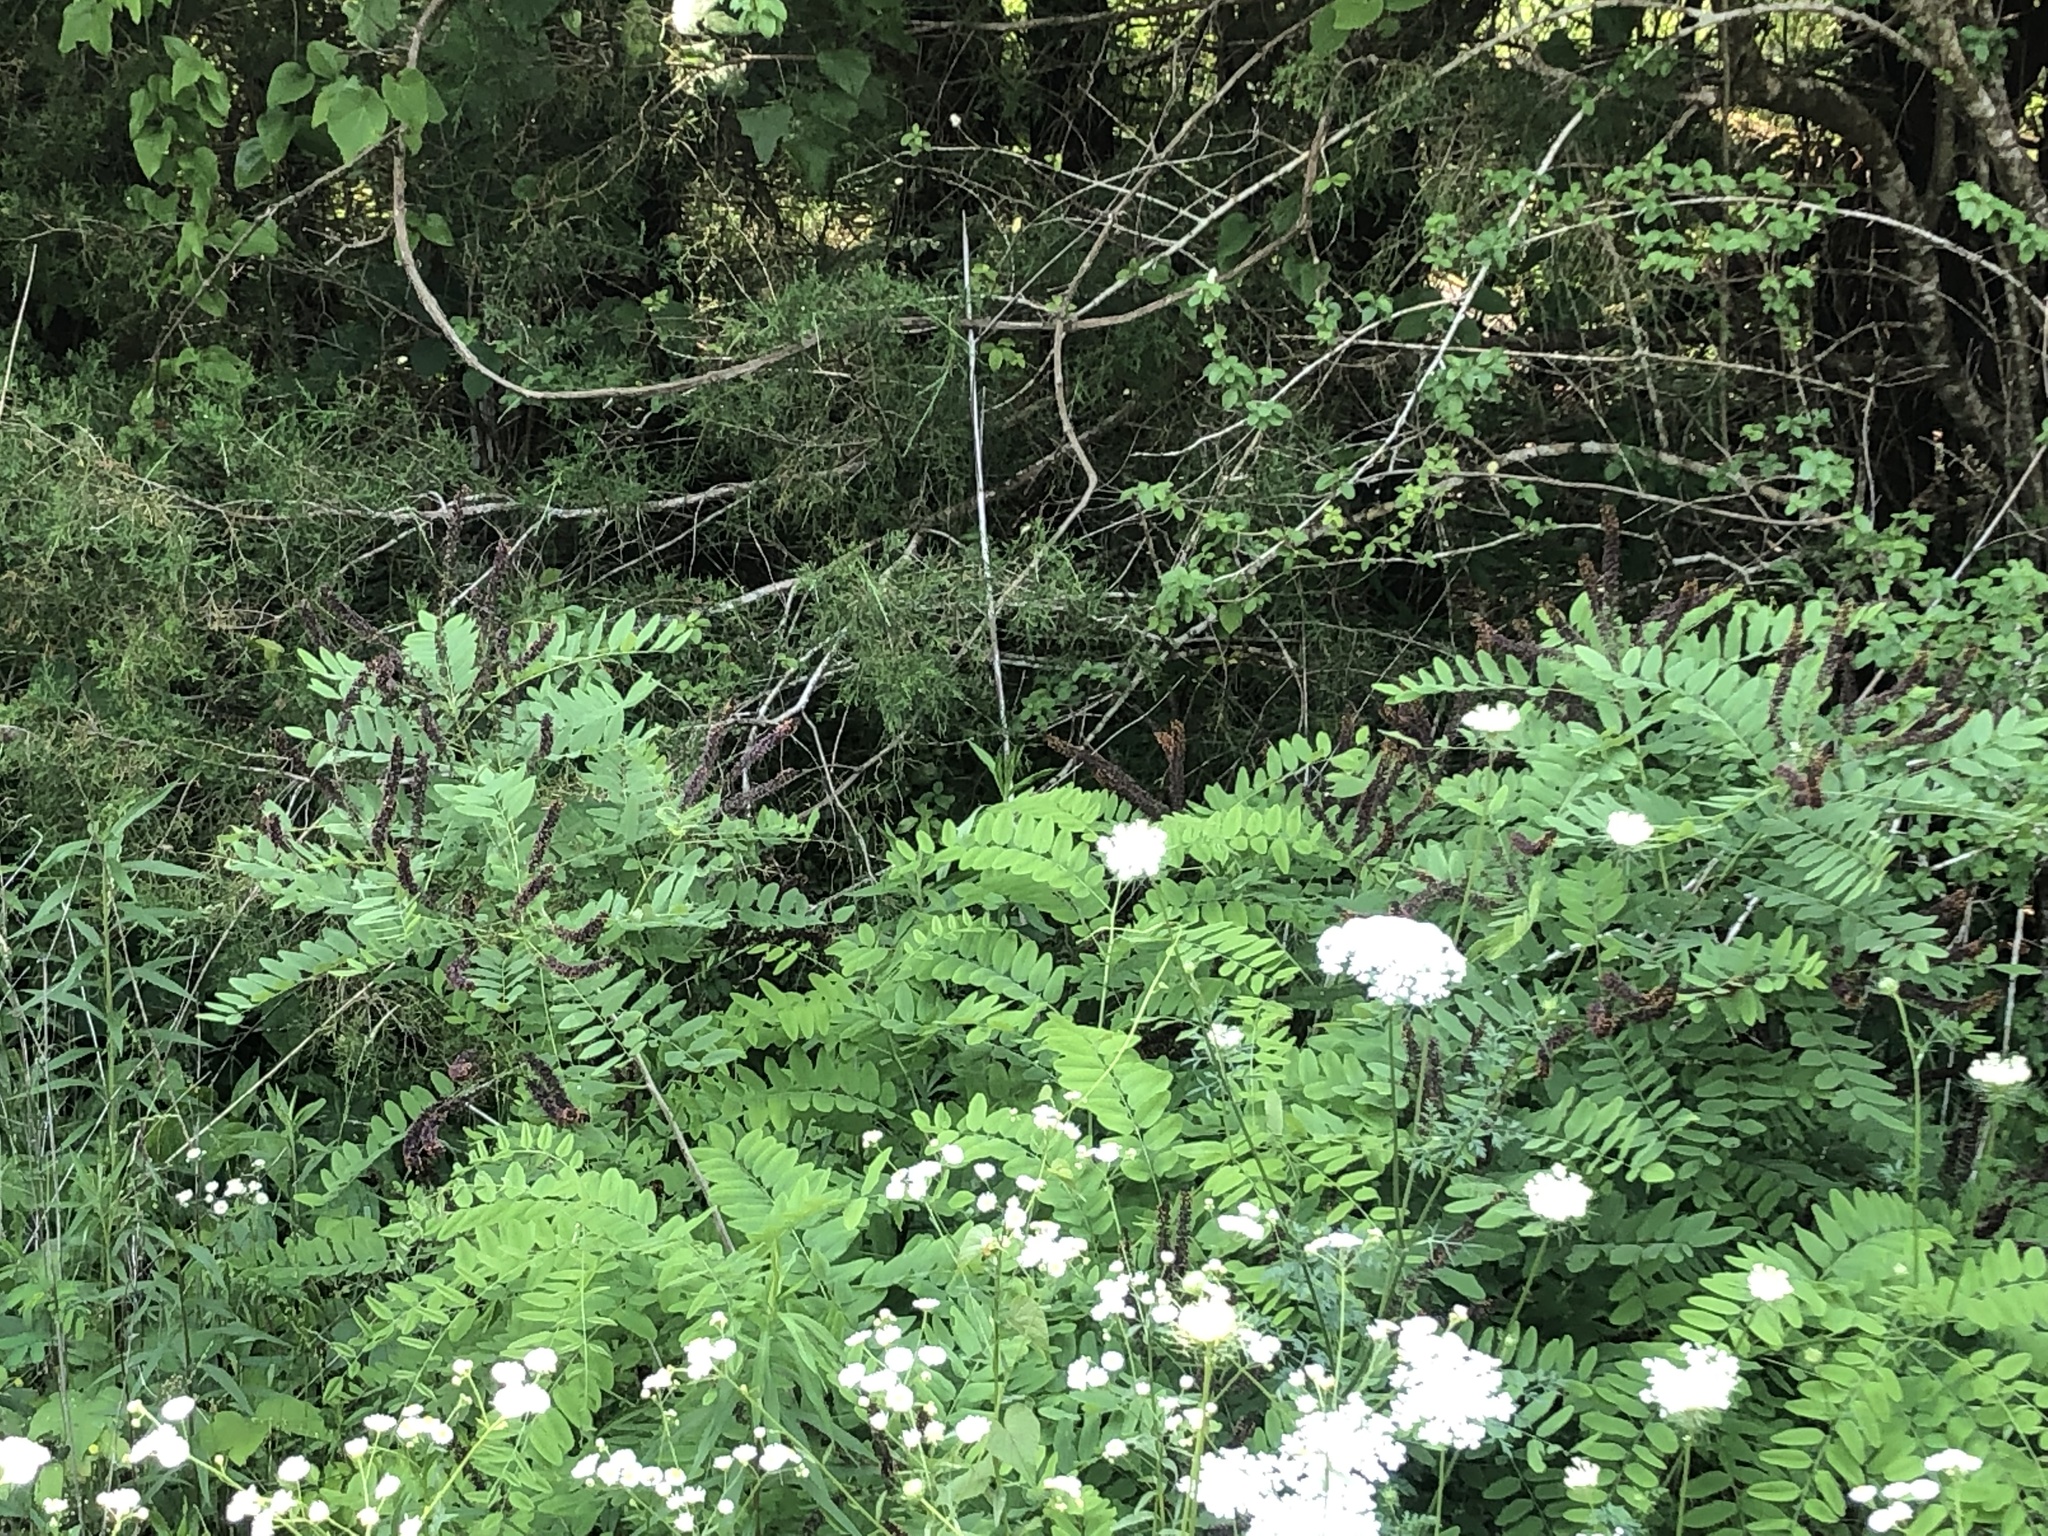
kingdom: Plantae
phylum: Tracheophyta
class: Magnoliopsida
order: Fabales
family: Fabaceae
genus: Amorpha
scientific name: Amorpha fruticosa
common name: False indigo
